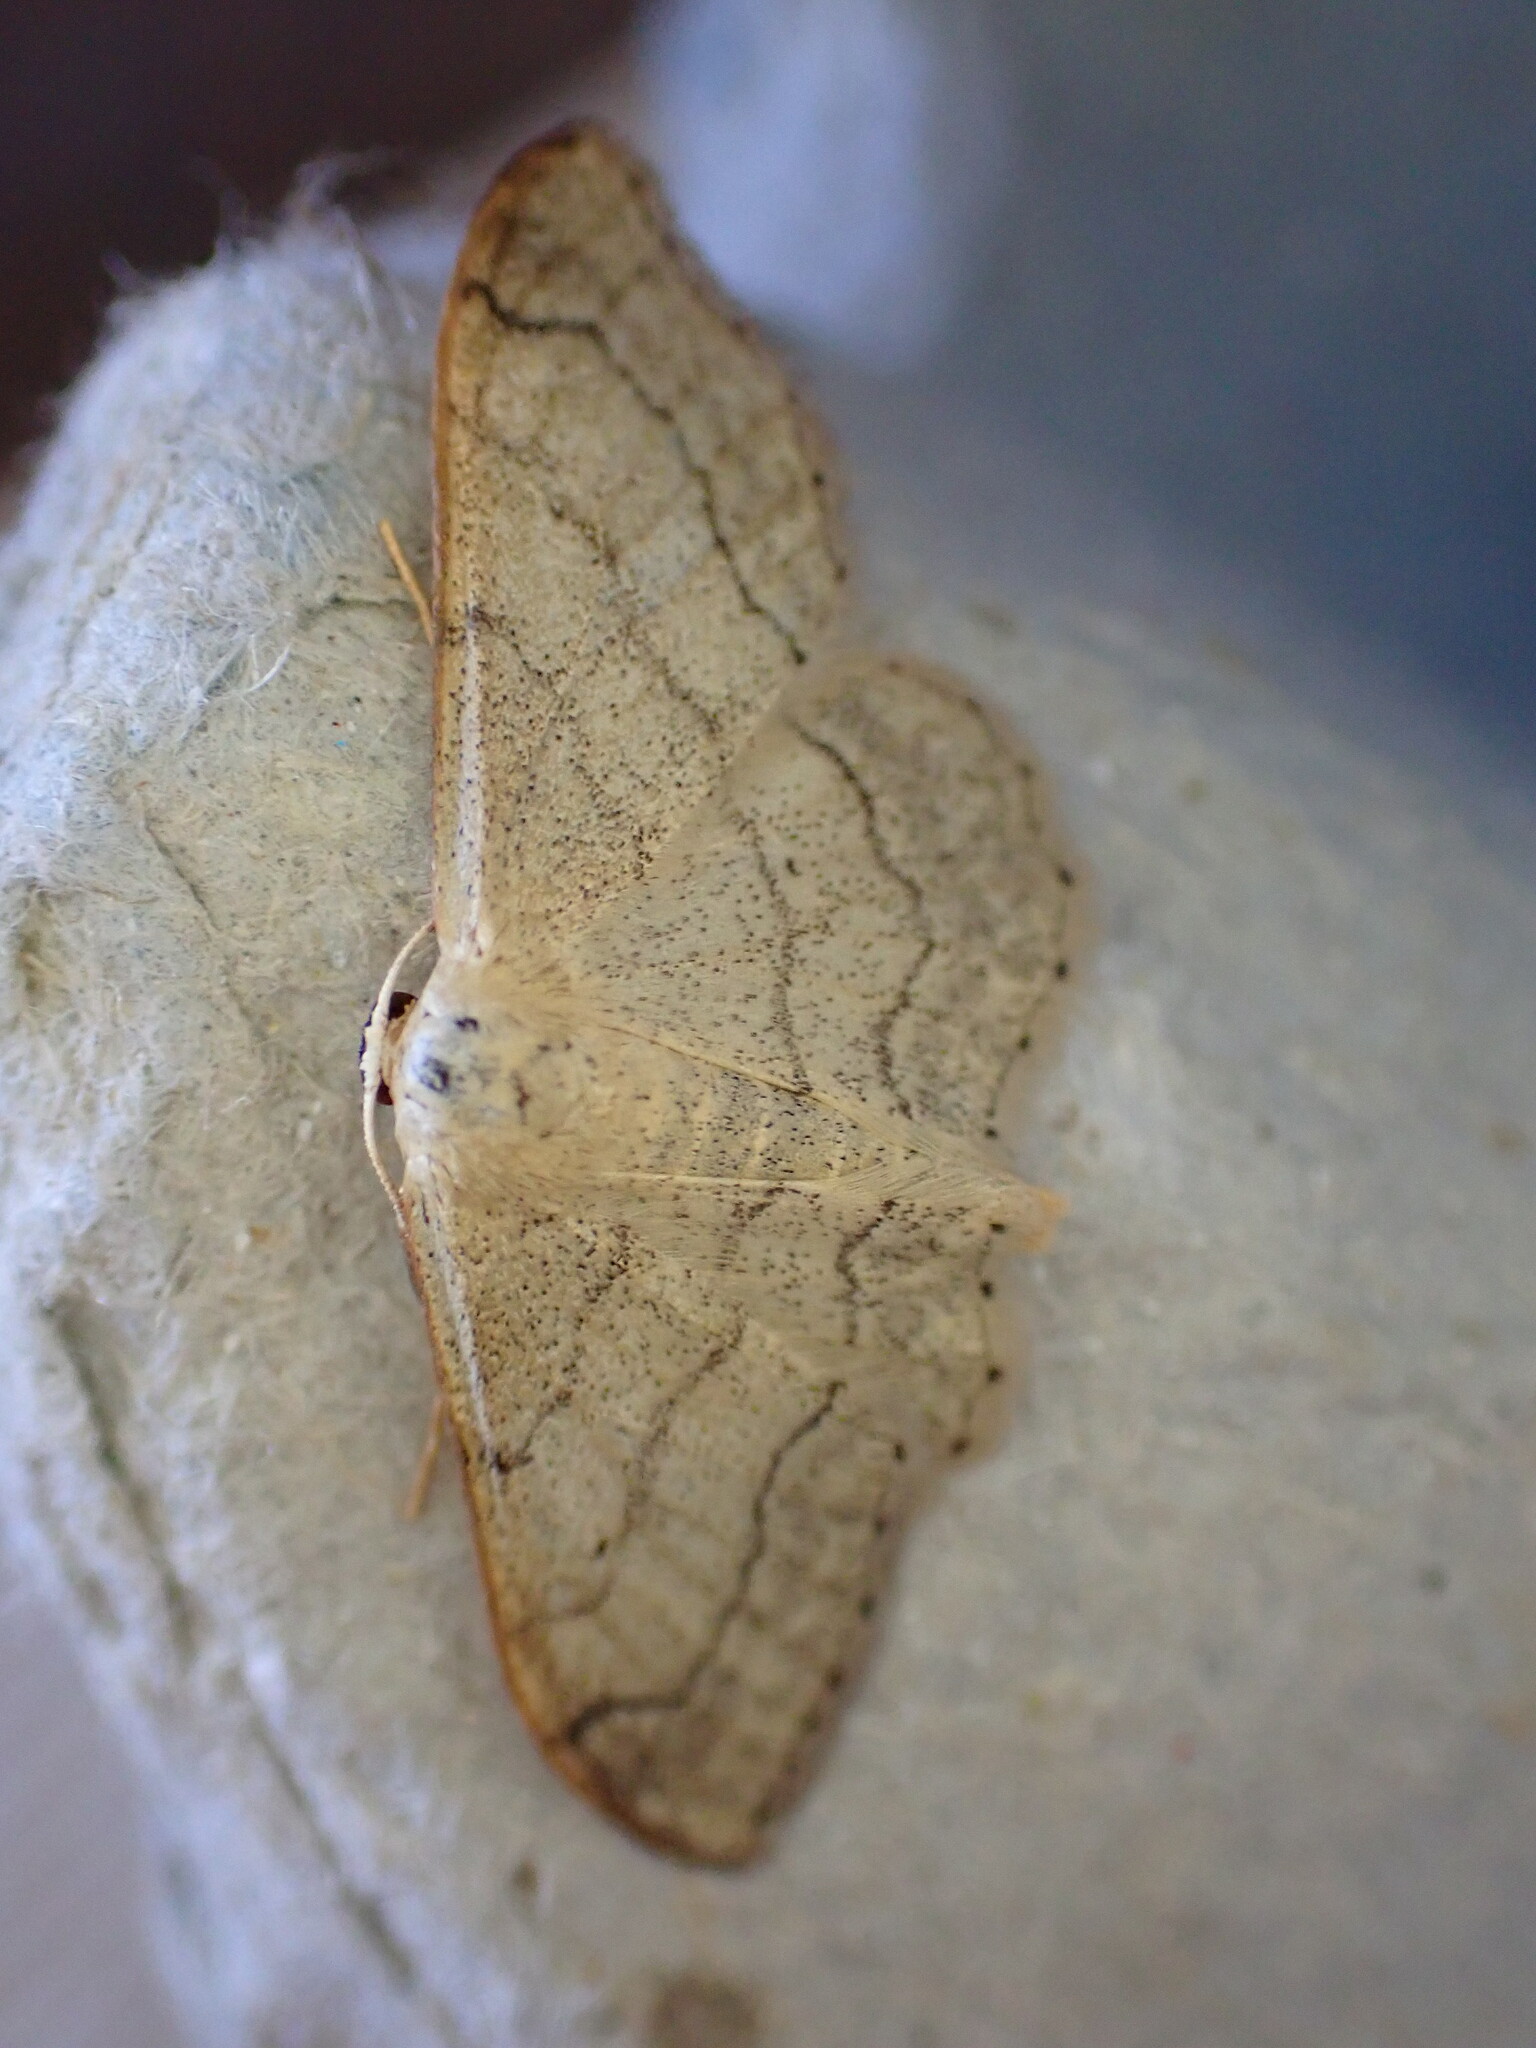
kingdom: Animalia
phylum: Arthropoda
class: Insecta
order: Lepidoptera
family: Geometridae
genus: Idaea
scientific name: Idaea aversata
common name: Riband wave
